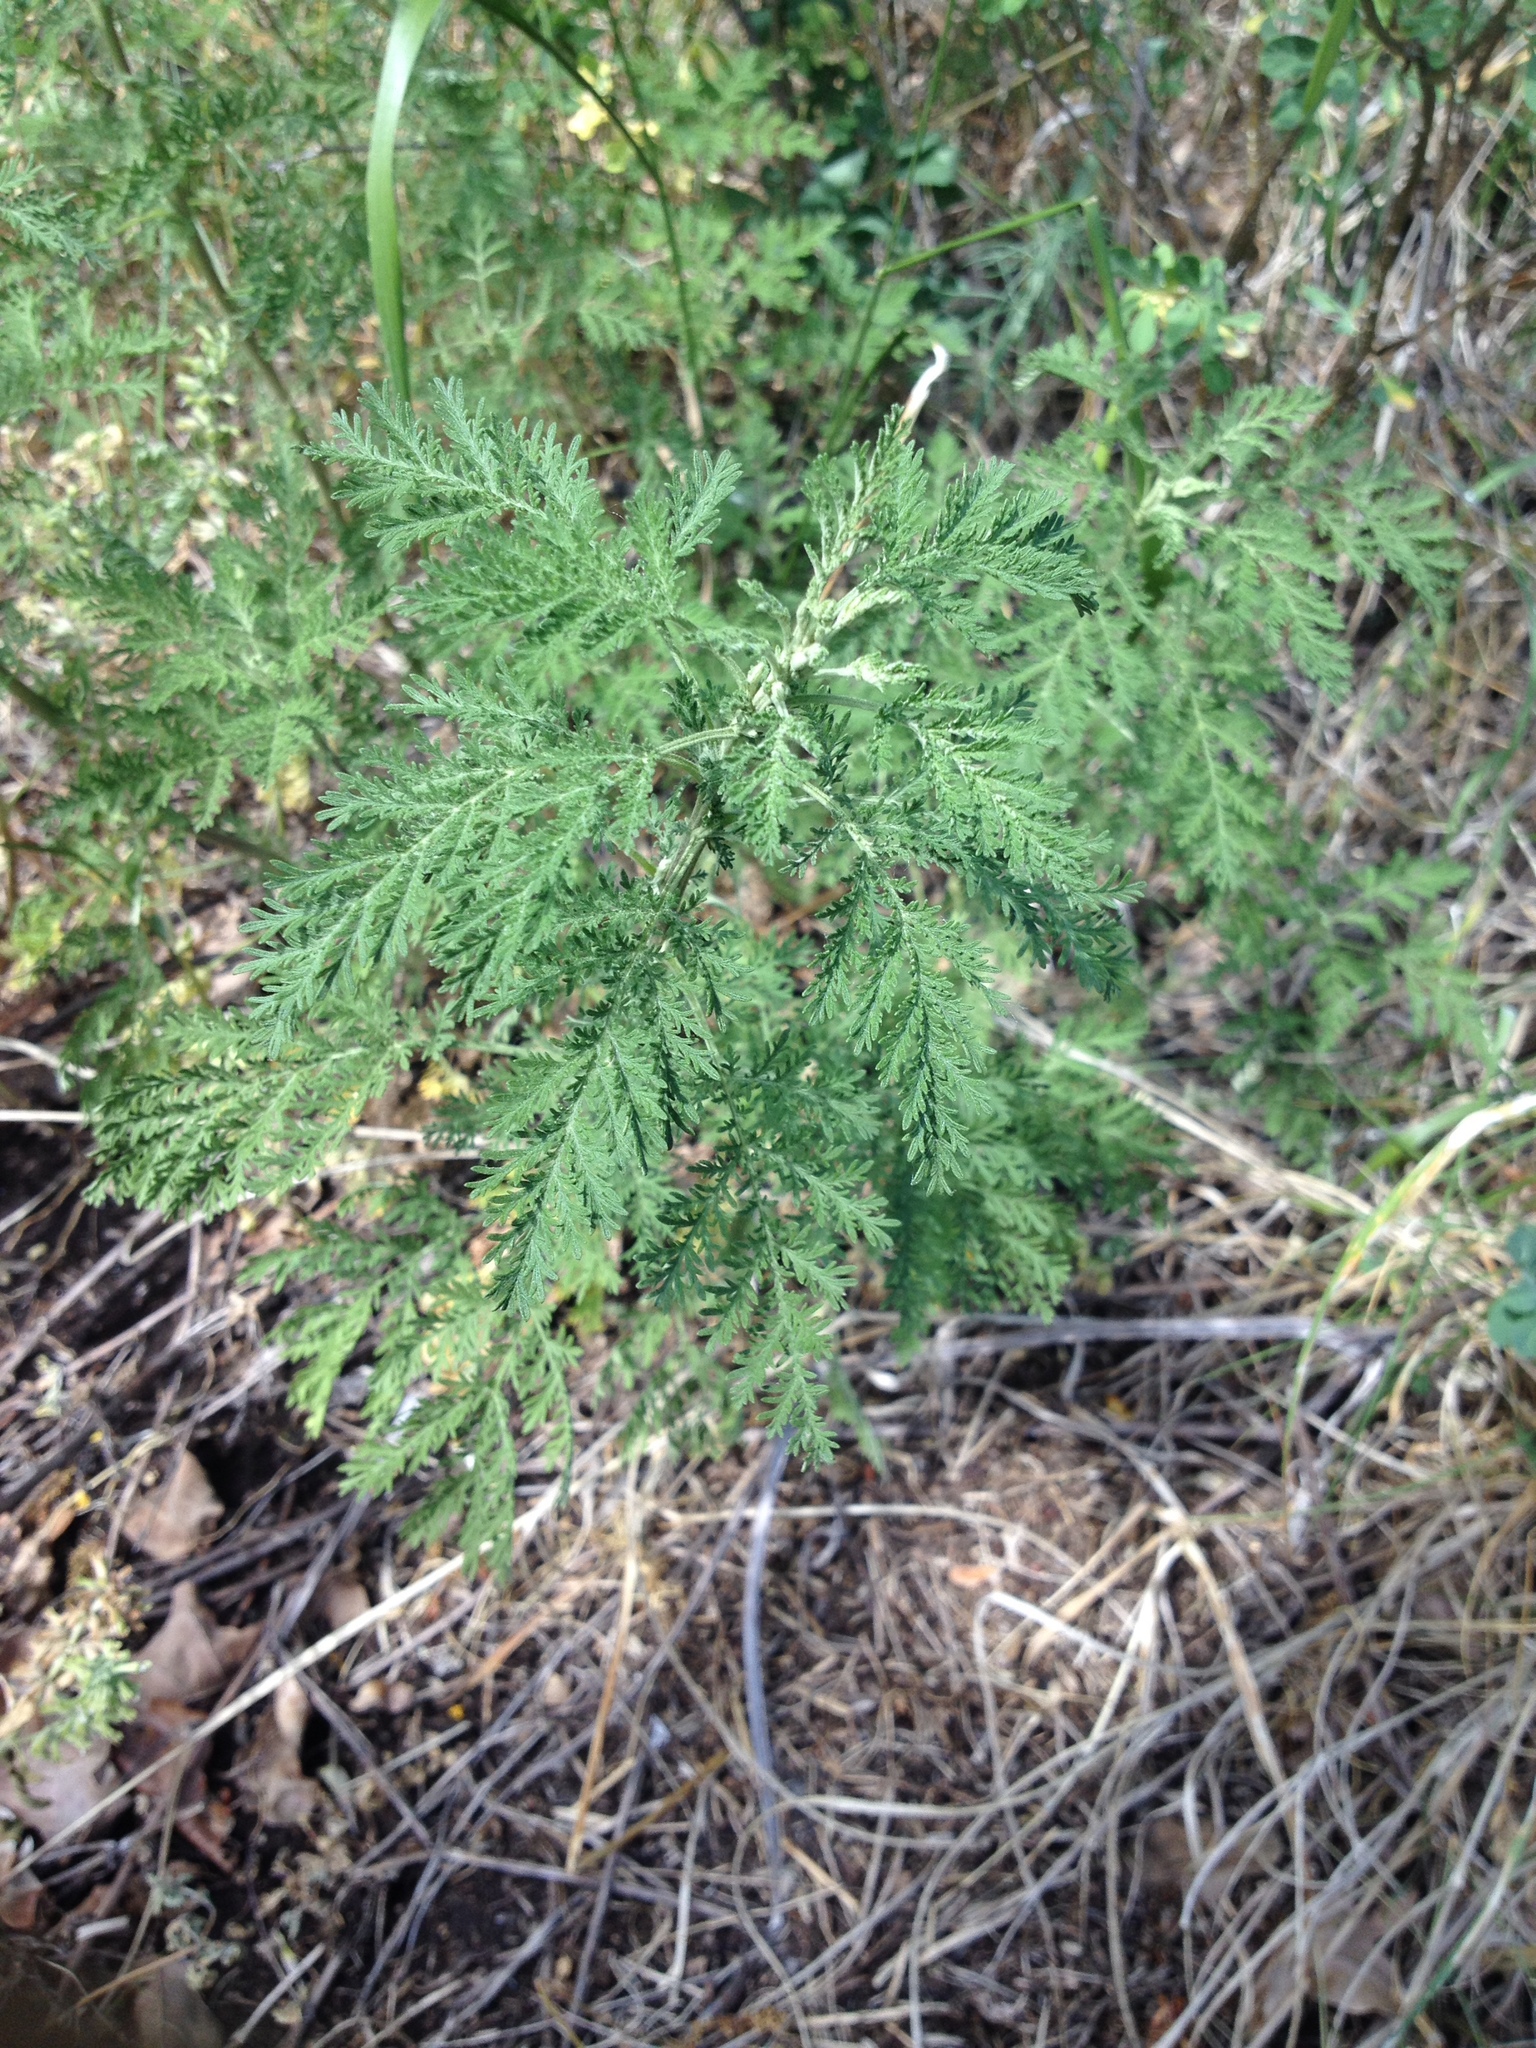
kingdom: Plantae
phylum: Tracheophyta
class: Magnoliopsida
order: Asterales
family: Asteraceae
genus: Artemisia
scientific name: Artemisia abrotanum
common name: Southernwood
